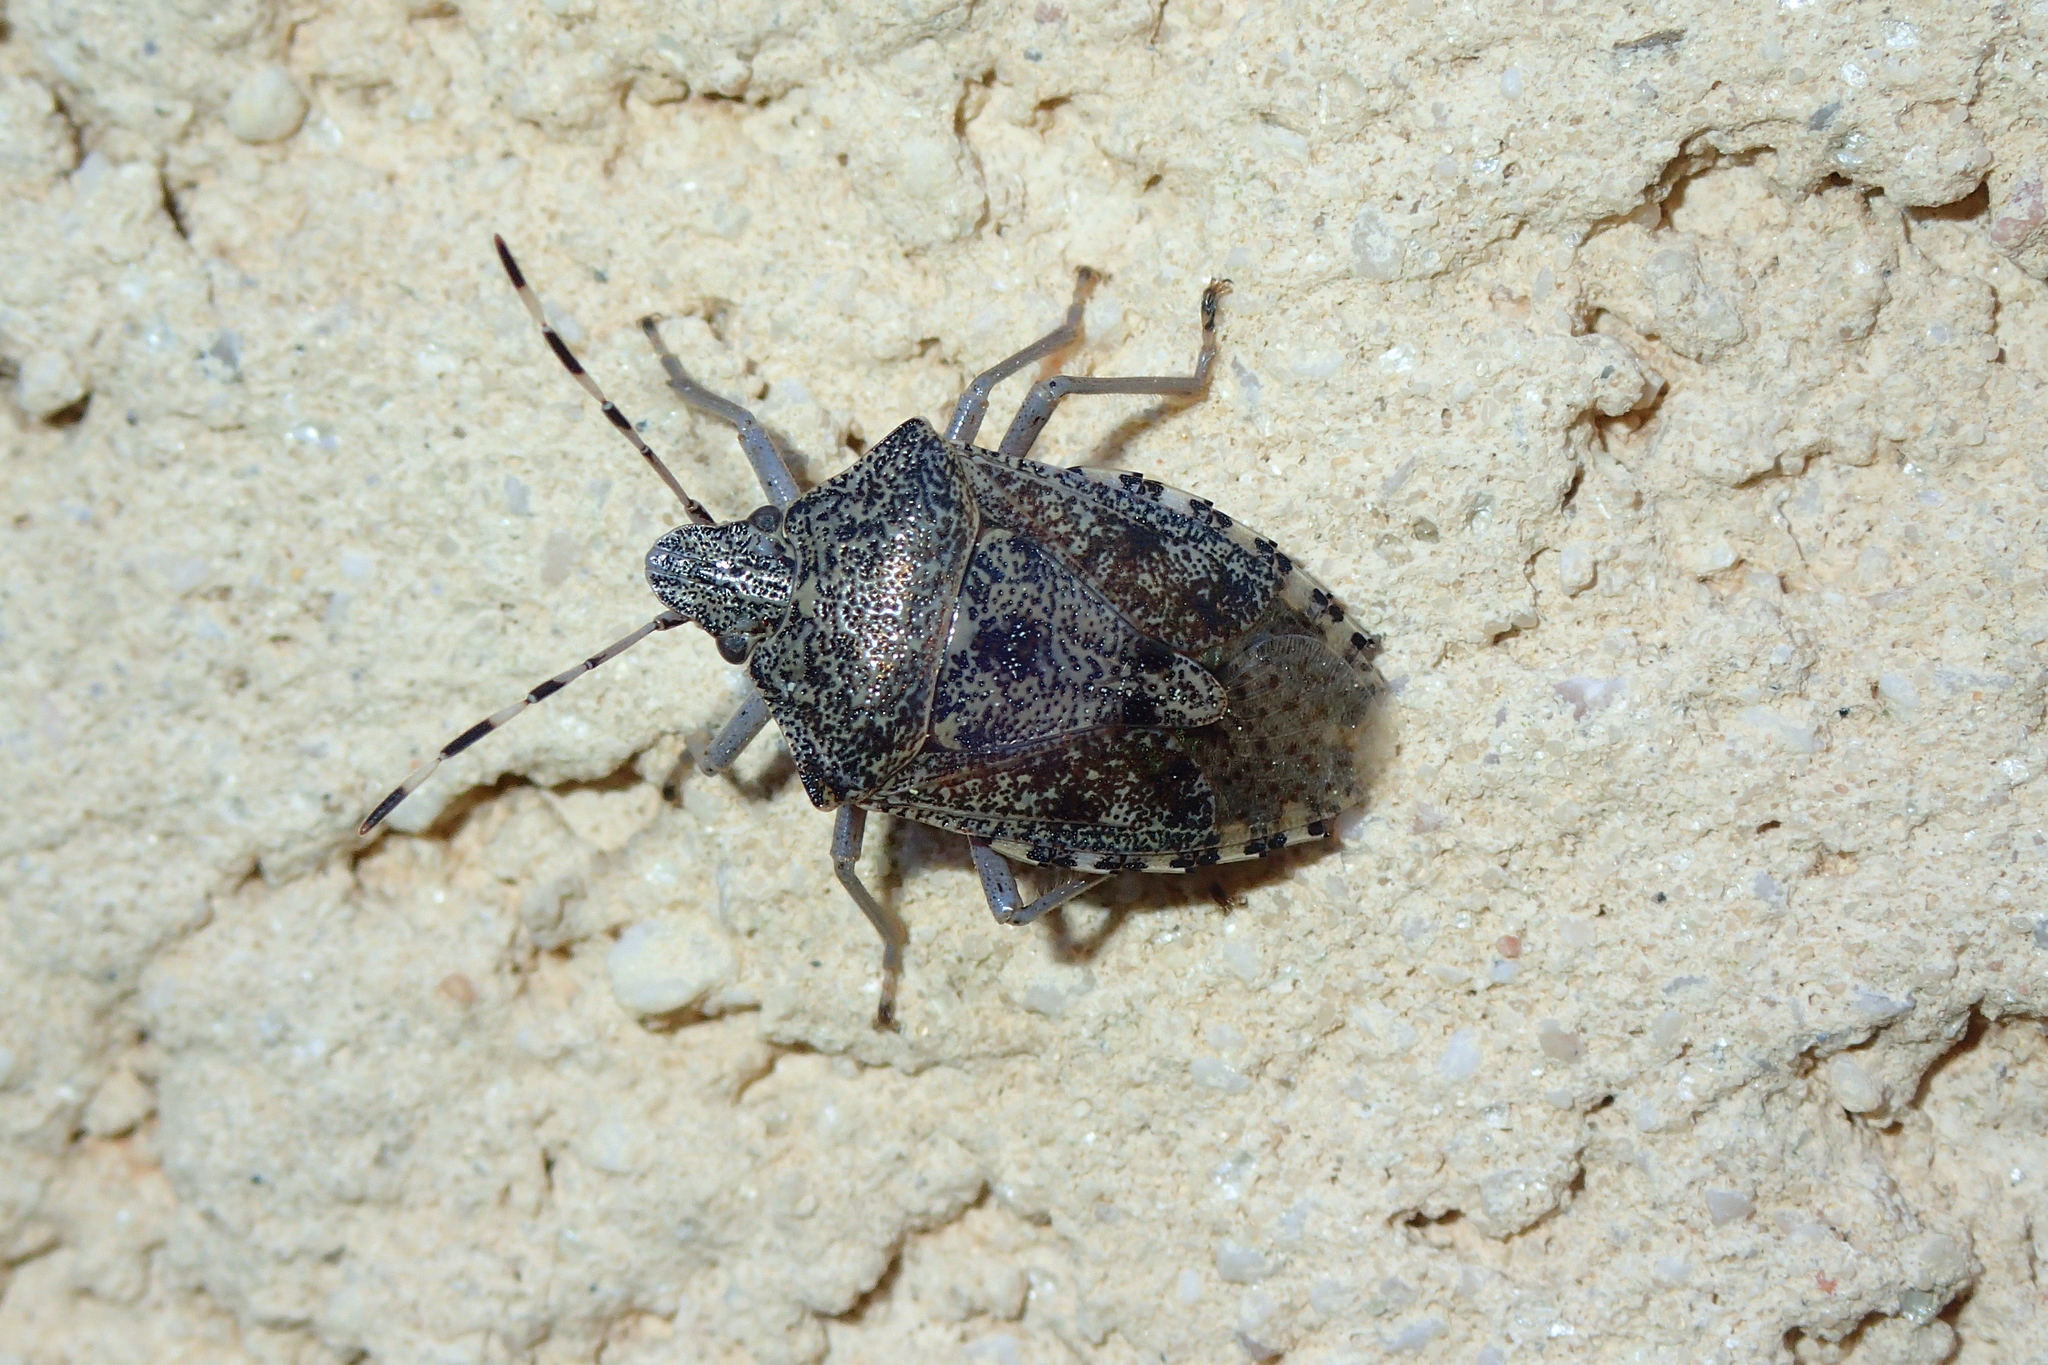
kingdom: Animalia
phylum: Arthropoda
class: Insecta
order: Hemiptera
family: Pentatomidae
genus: Rhaphigaster
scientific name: Rhaphigaster nebulosa
